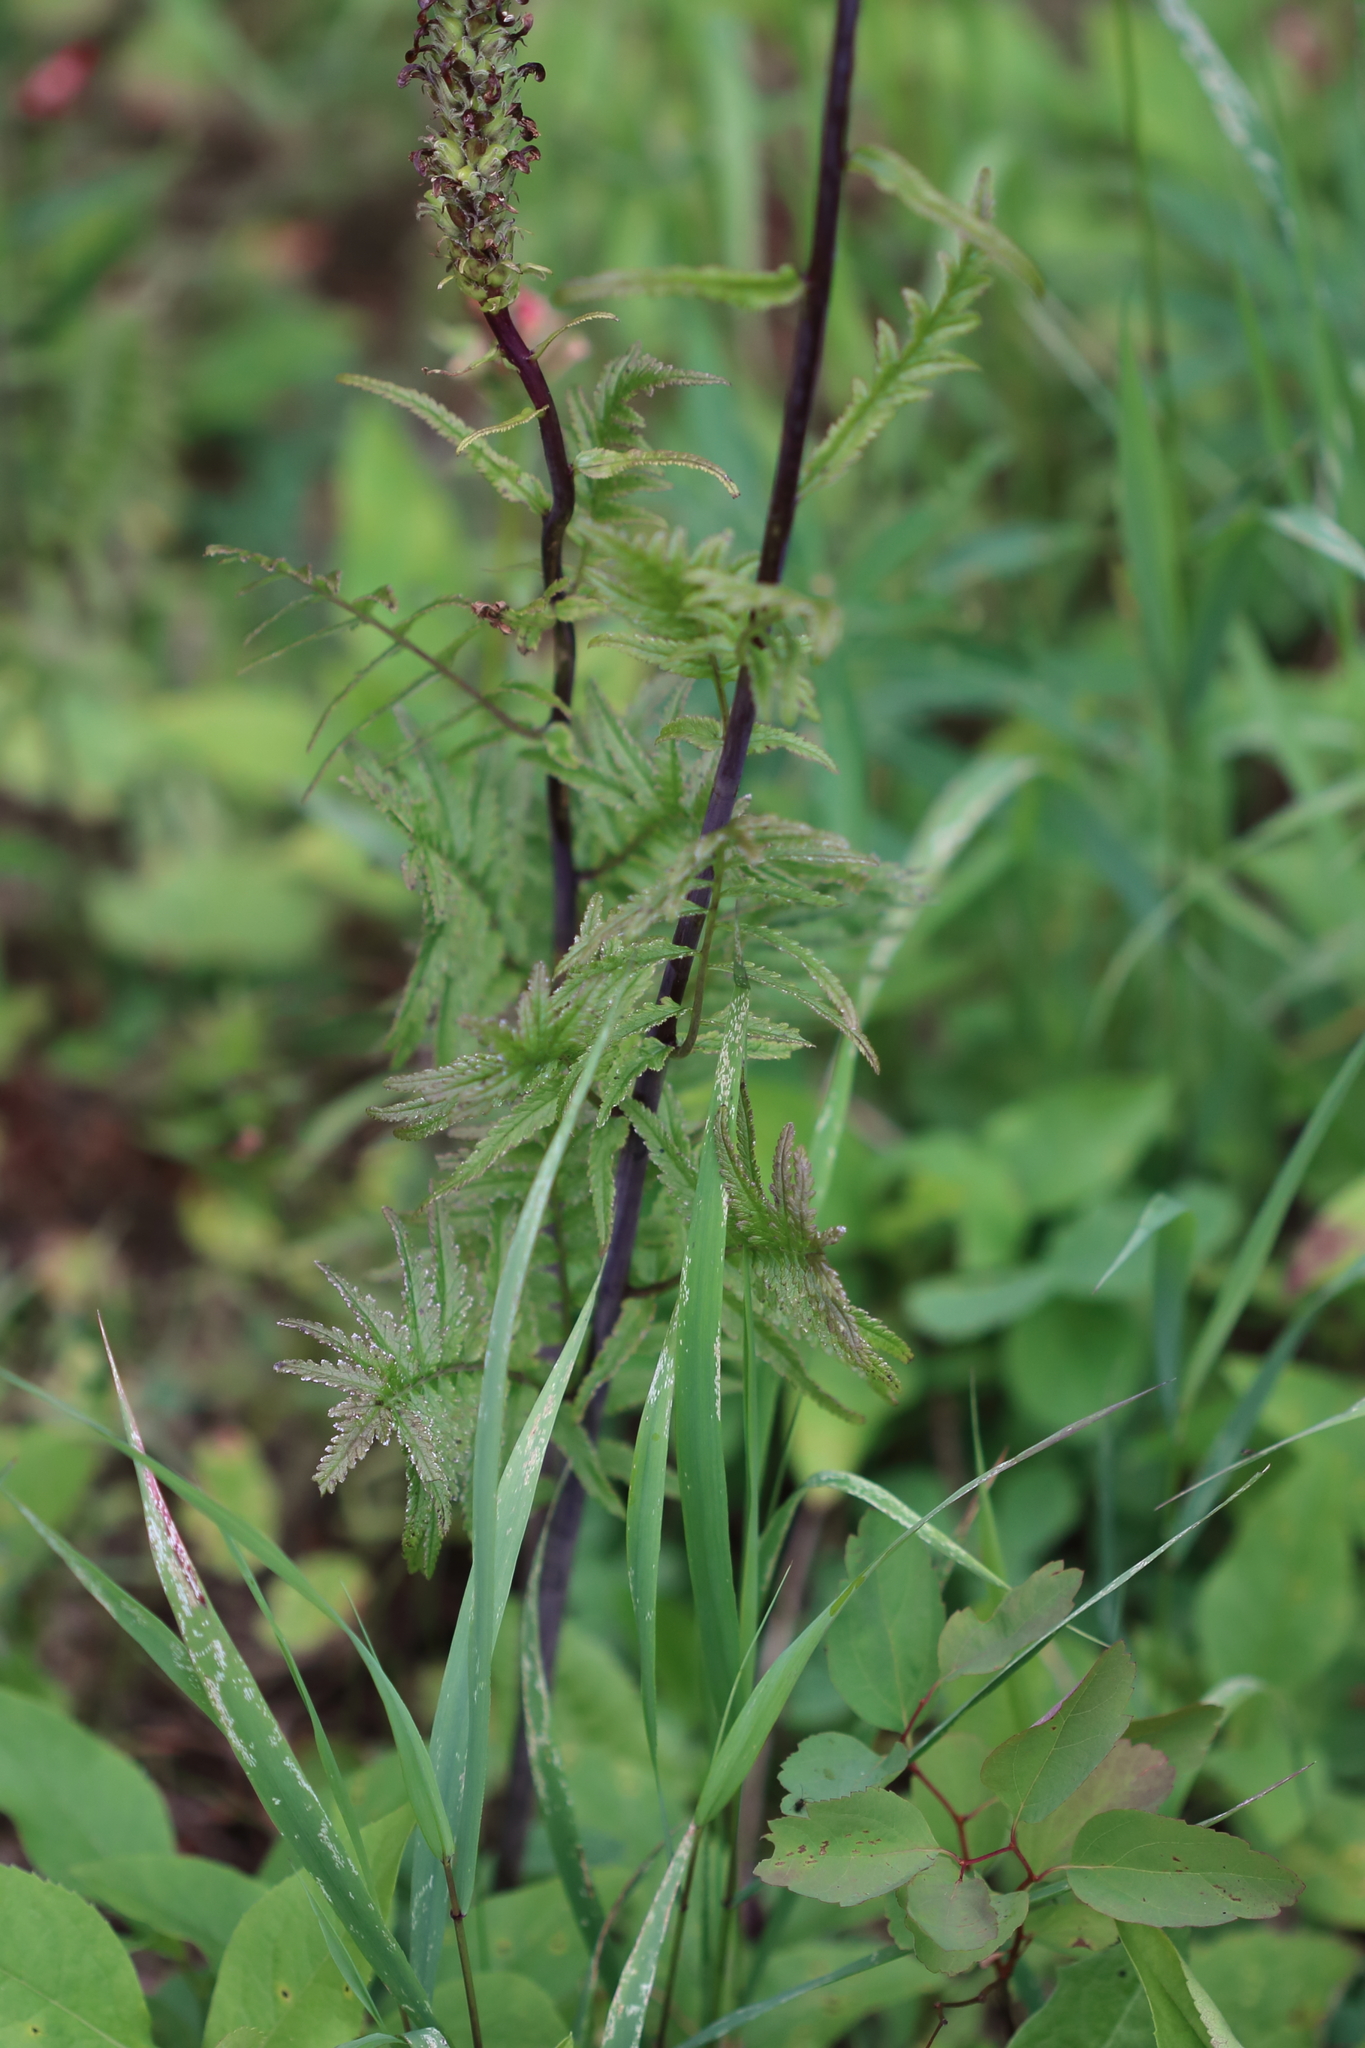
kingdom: Plantae
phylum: Tracheophyta
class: Magnoliopsida
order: Lamiales
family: Orobanchaceae
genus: Pedicularis
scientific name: Pedicularis bracteosa
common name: Bracted lousewort
